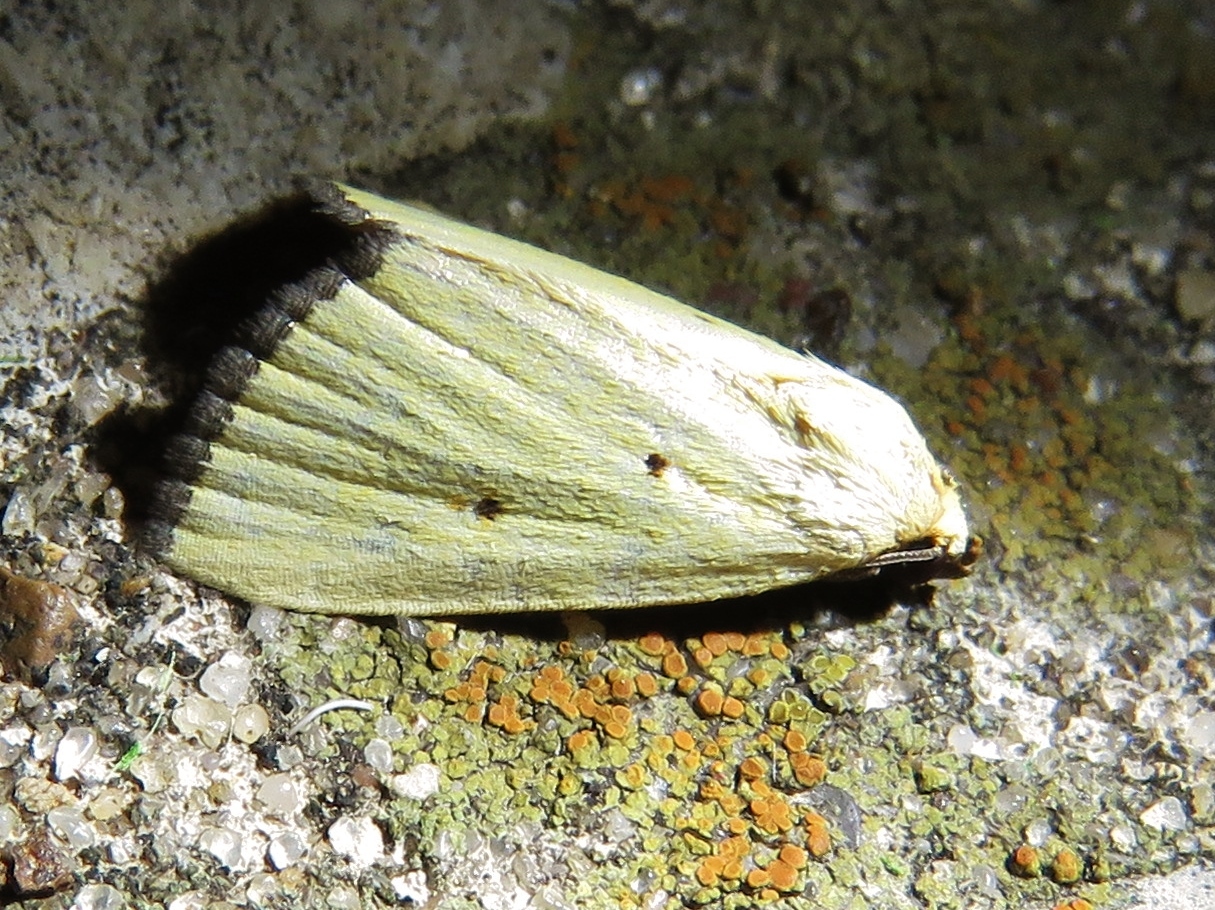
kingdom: Animalia
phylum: Arthropoda
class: Insecta
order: Lepidoptera
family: Noctuidae
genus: Marimatha
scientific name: Marimatha nigrofimbria
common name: Black-bordered lemon moth
